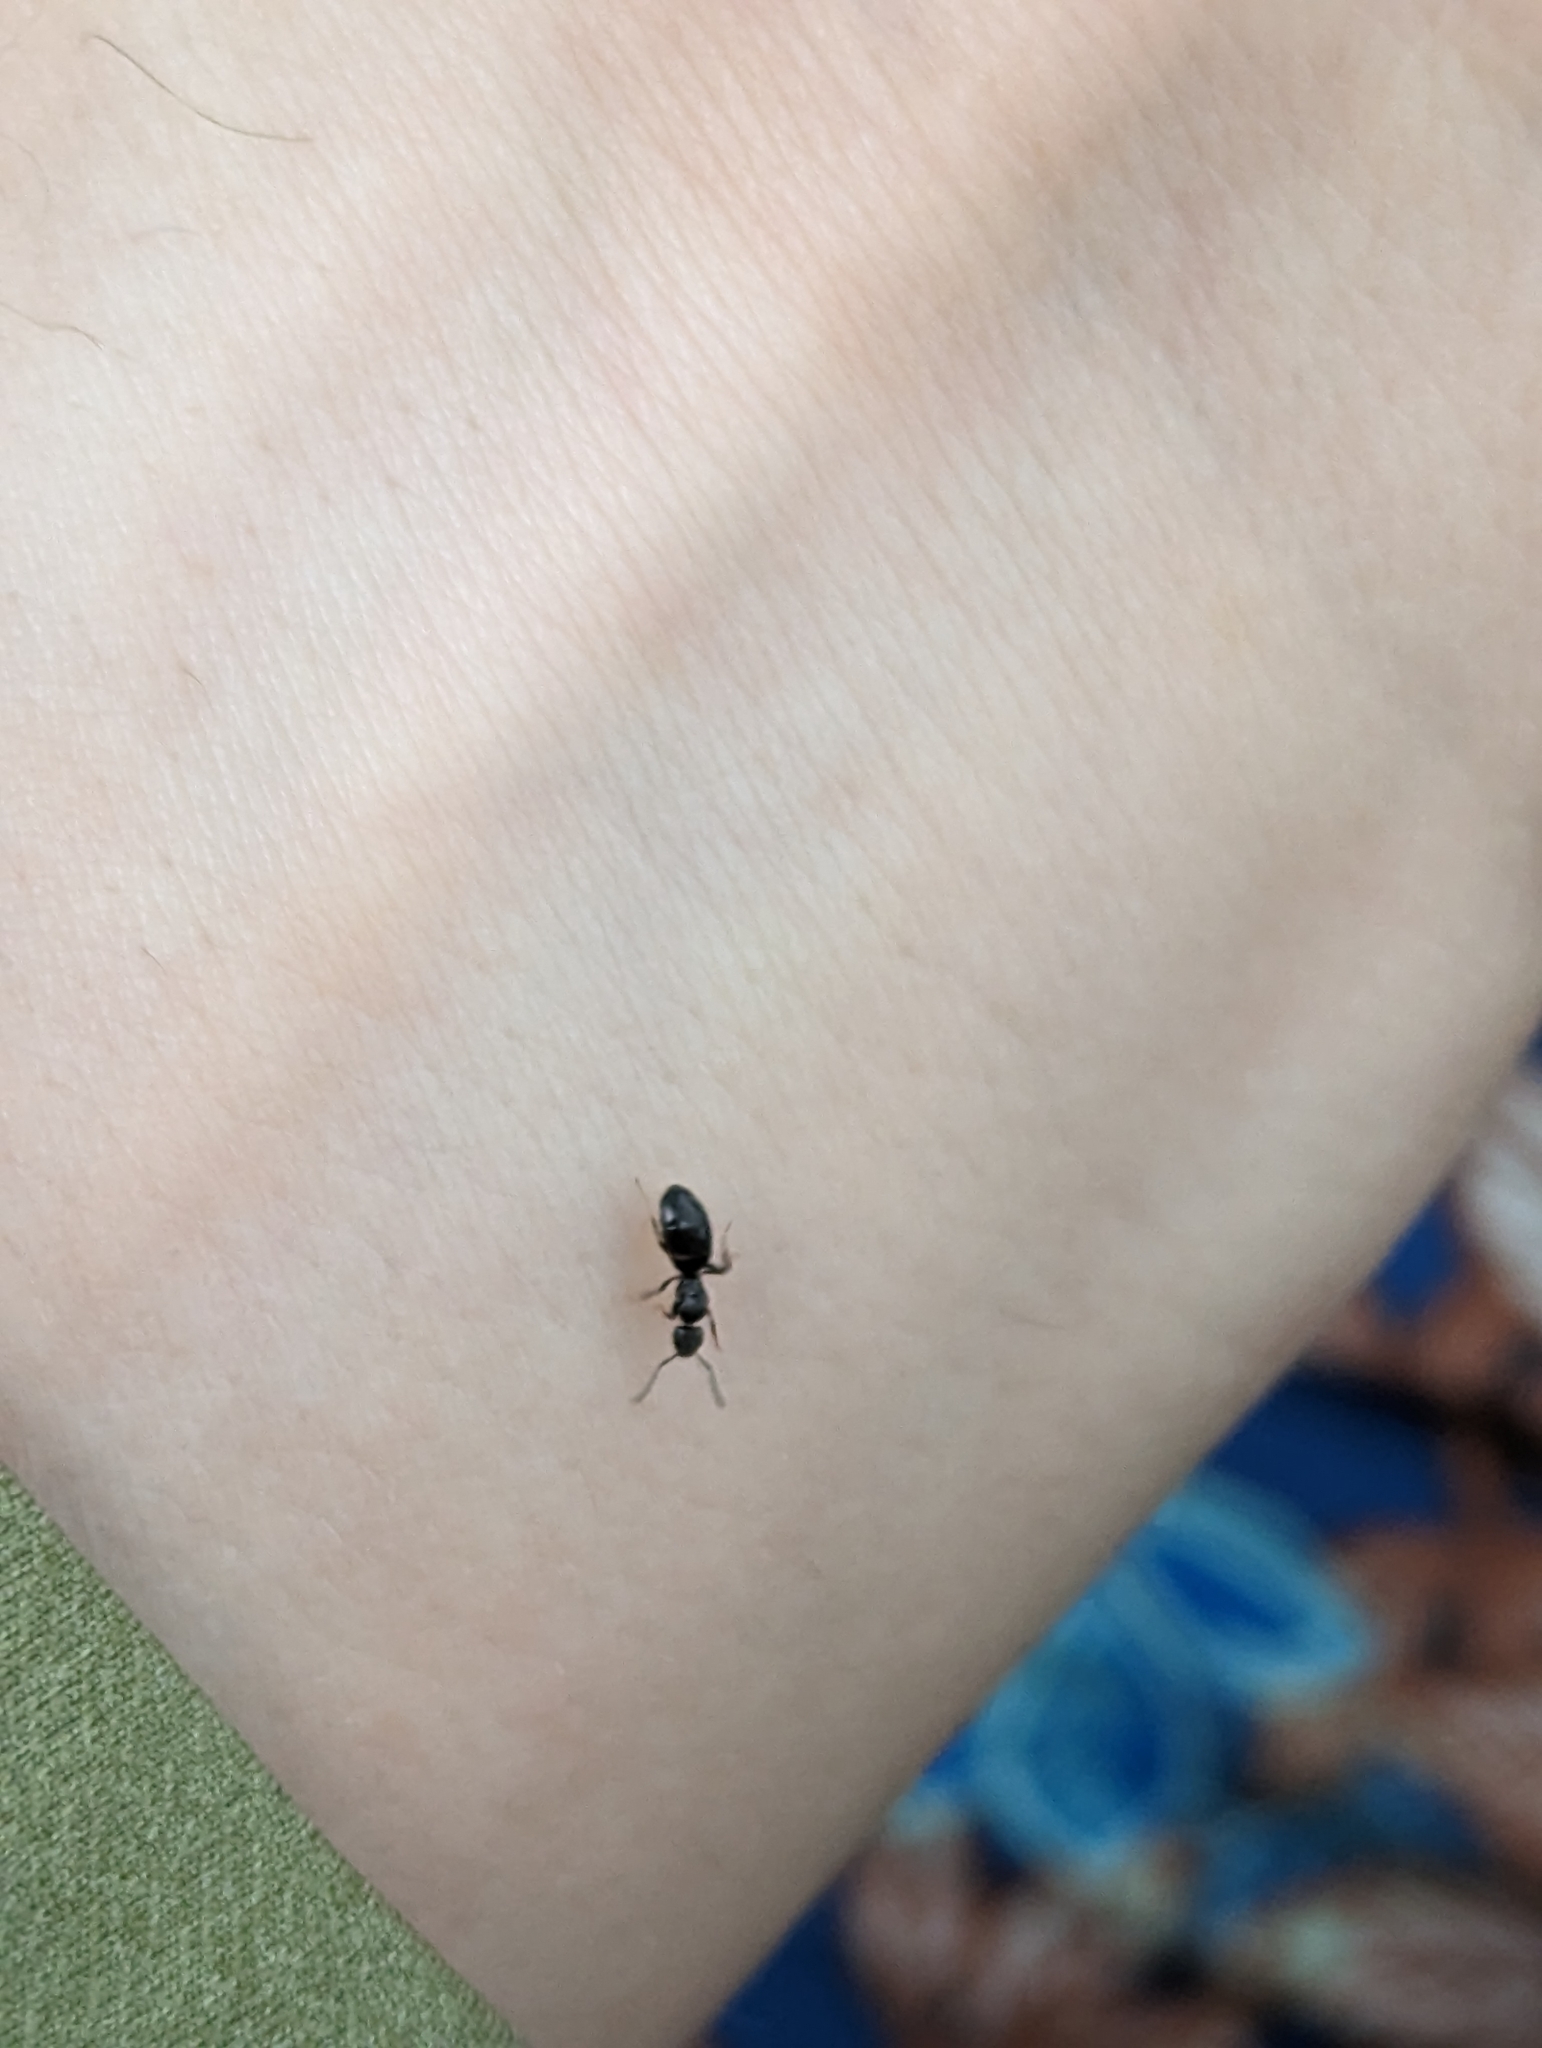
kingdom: Animalia
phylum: Arthropoda
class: Insecta
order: Hymenoptera
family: Formicidae
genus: Tapinoma
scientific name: Tapinoma sessile
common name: Odorous house ant
